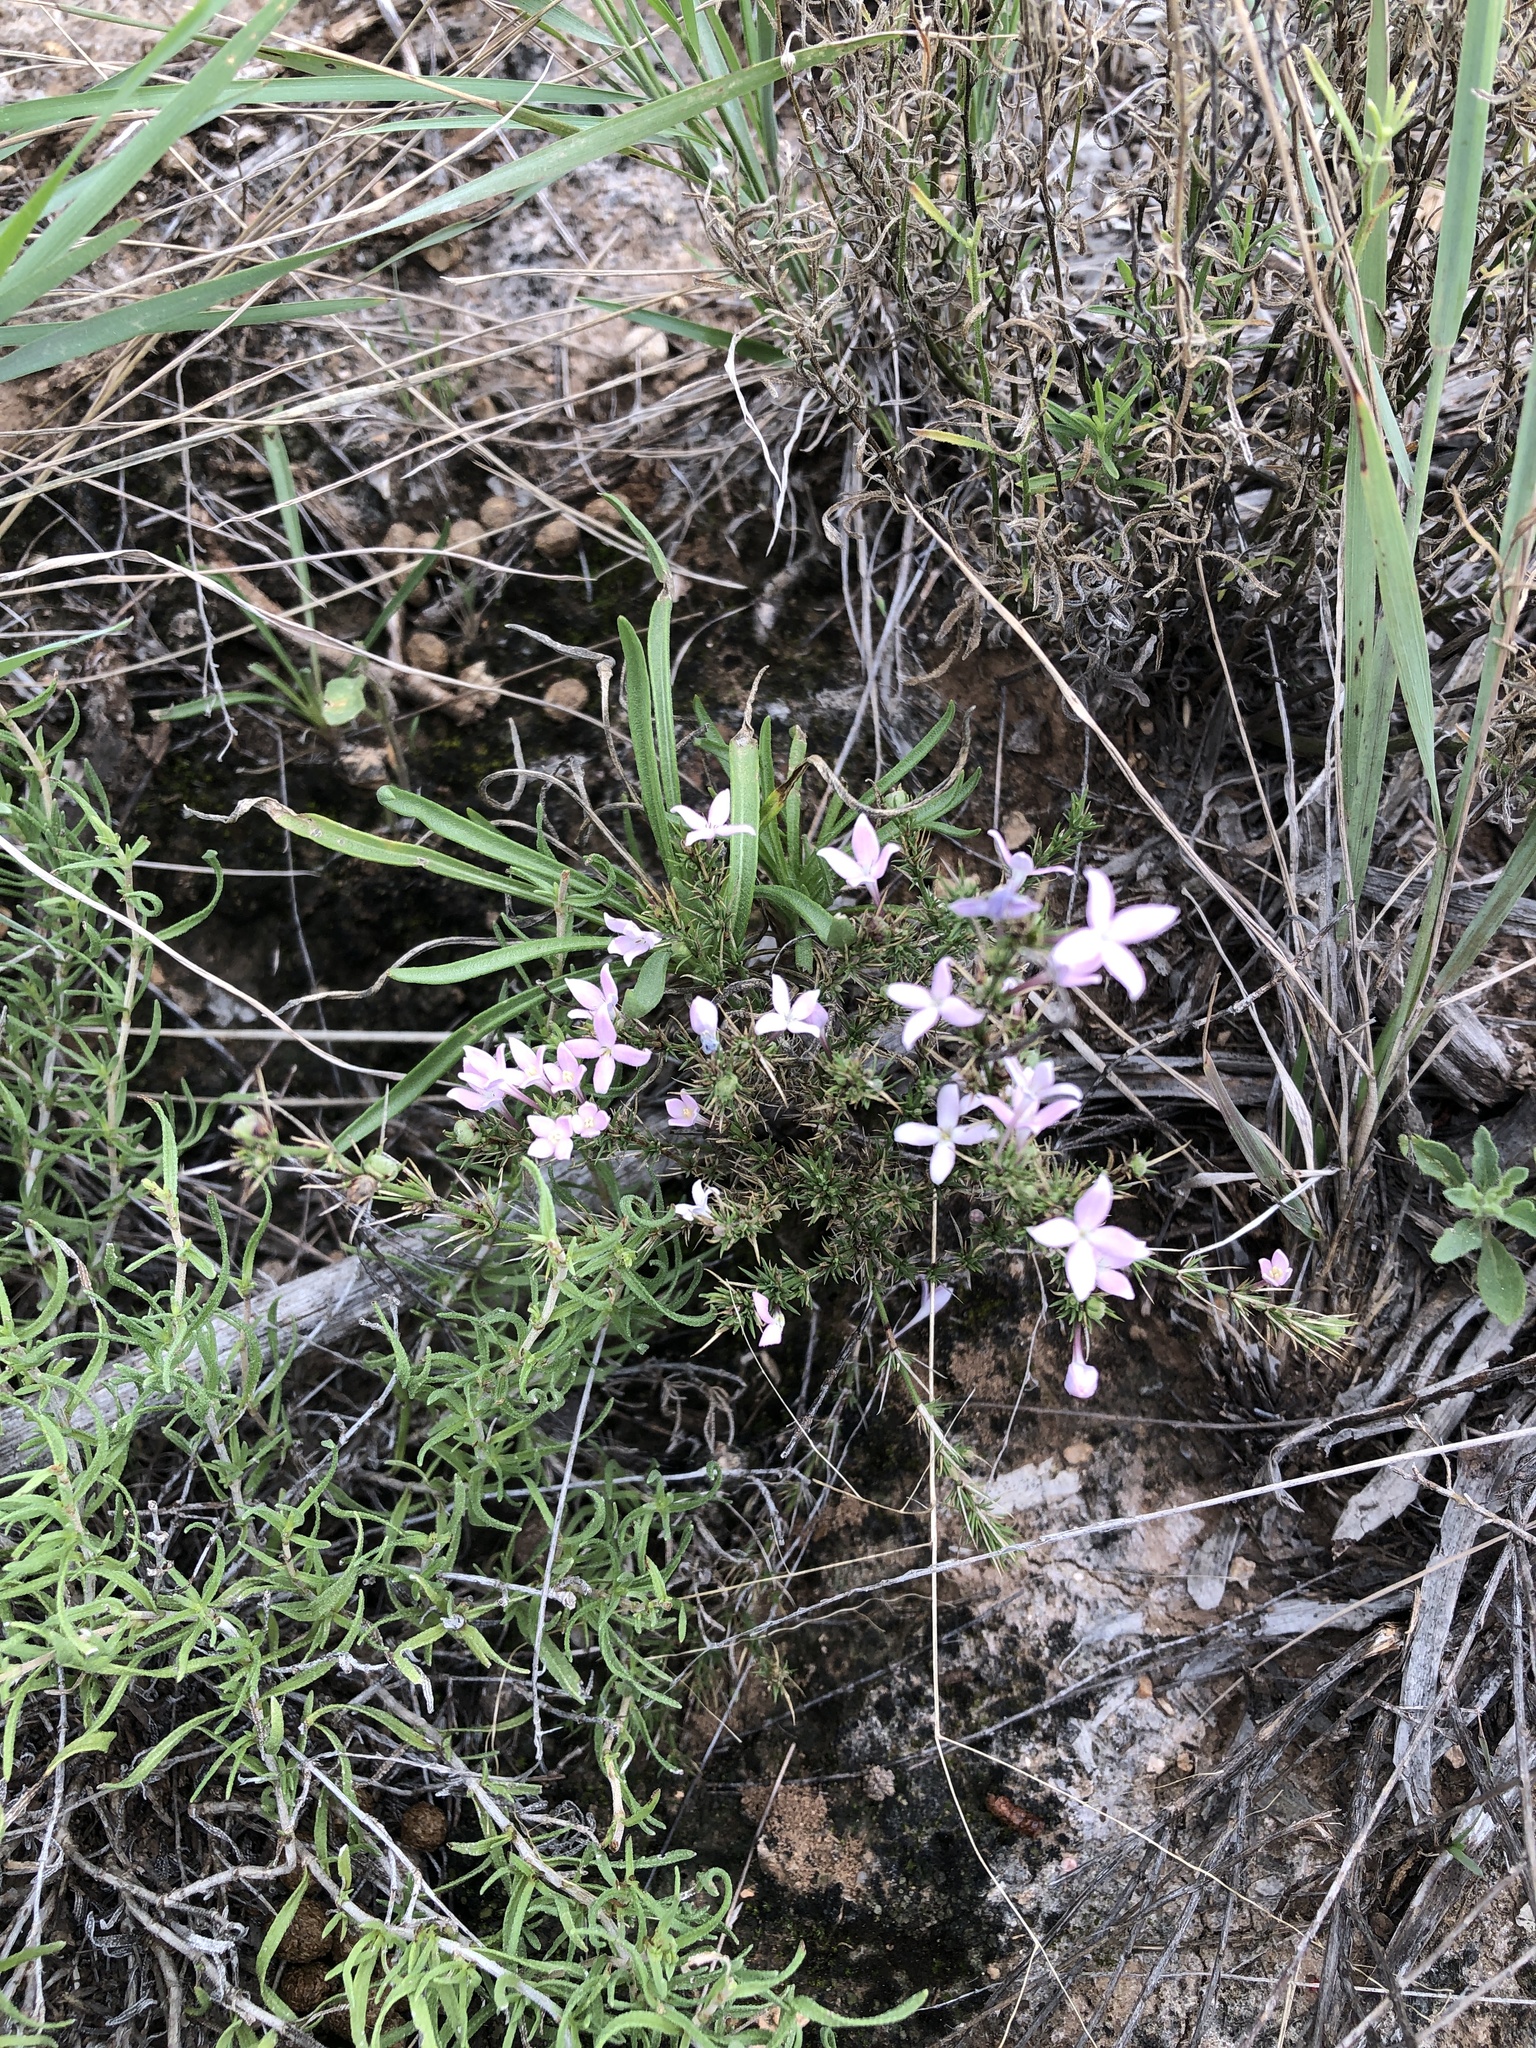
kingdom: Plantae
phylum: Tracheophyta
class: Magnoliopsida
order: Gentianales
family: Rubiaceae
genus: Houstonia
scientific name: Houstonia acerosa
